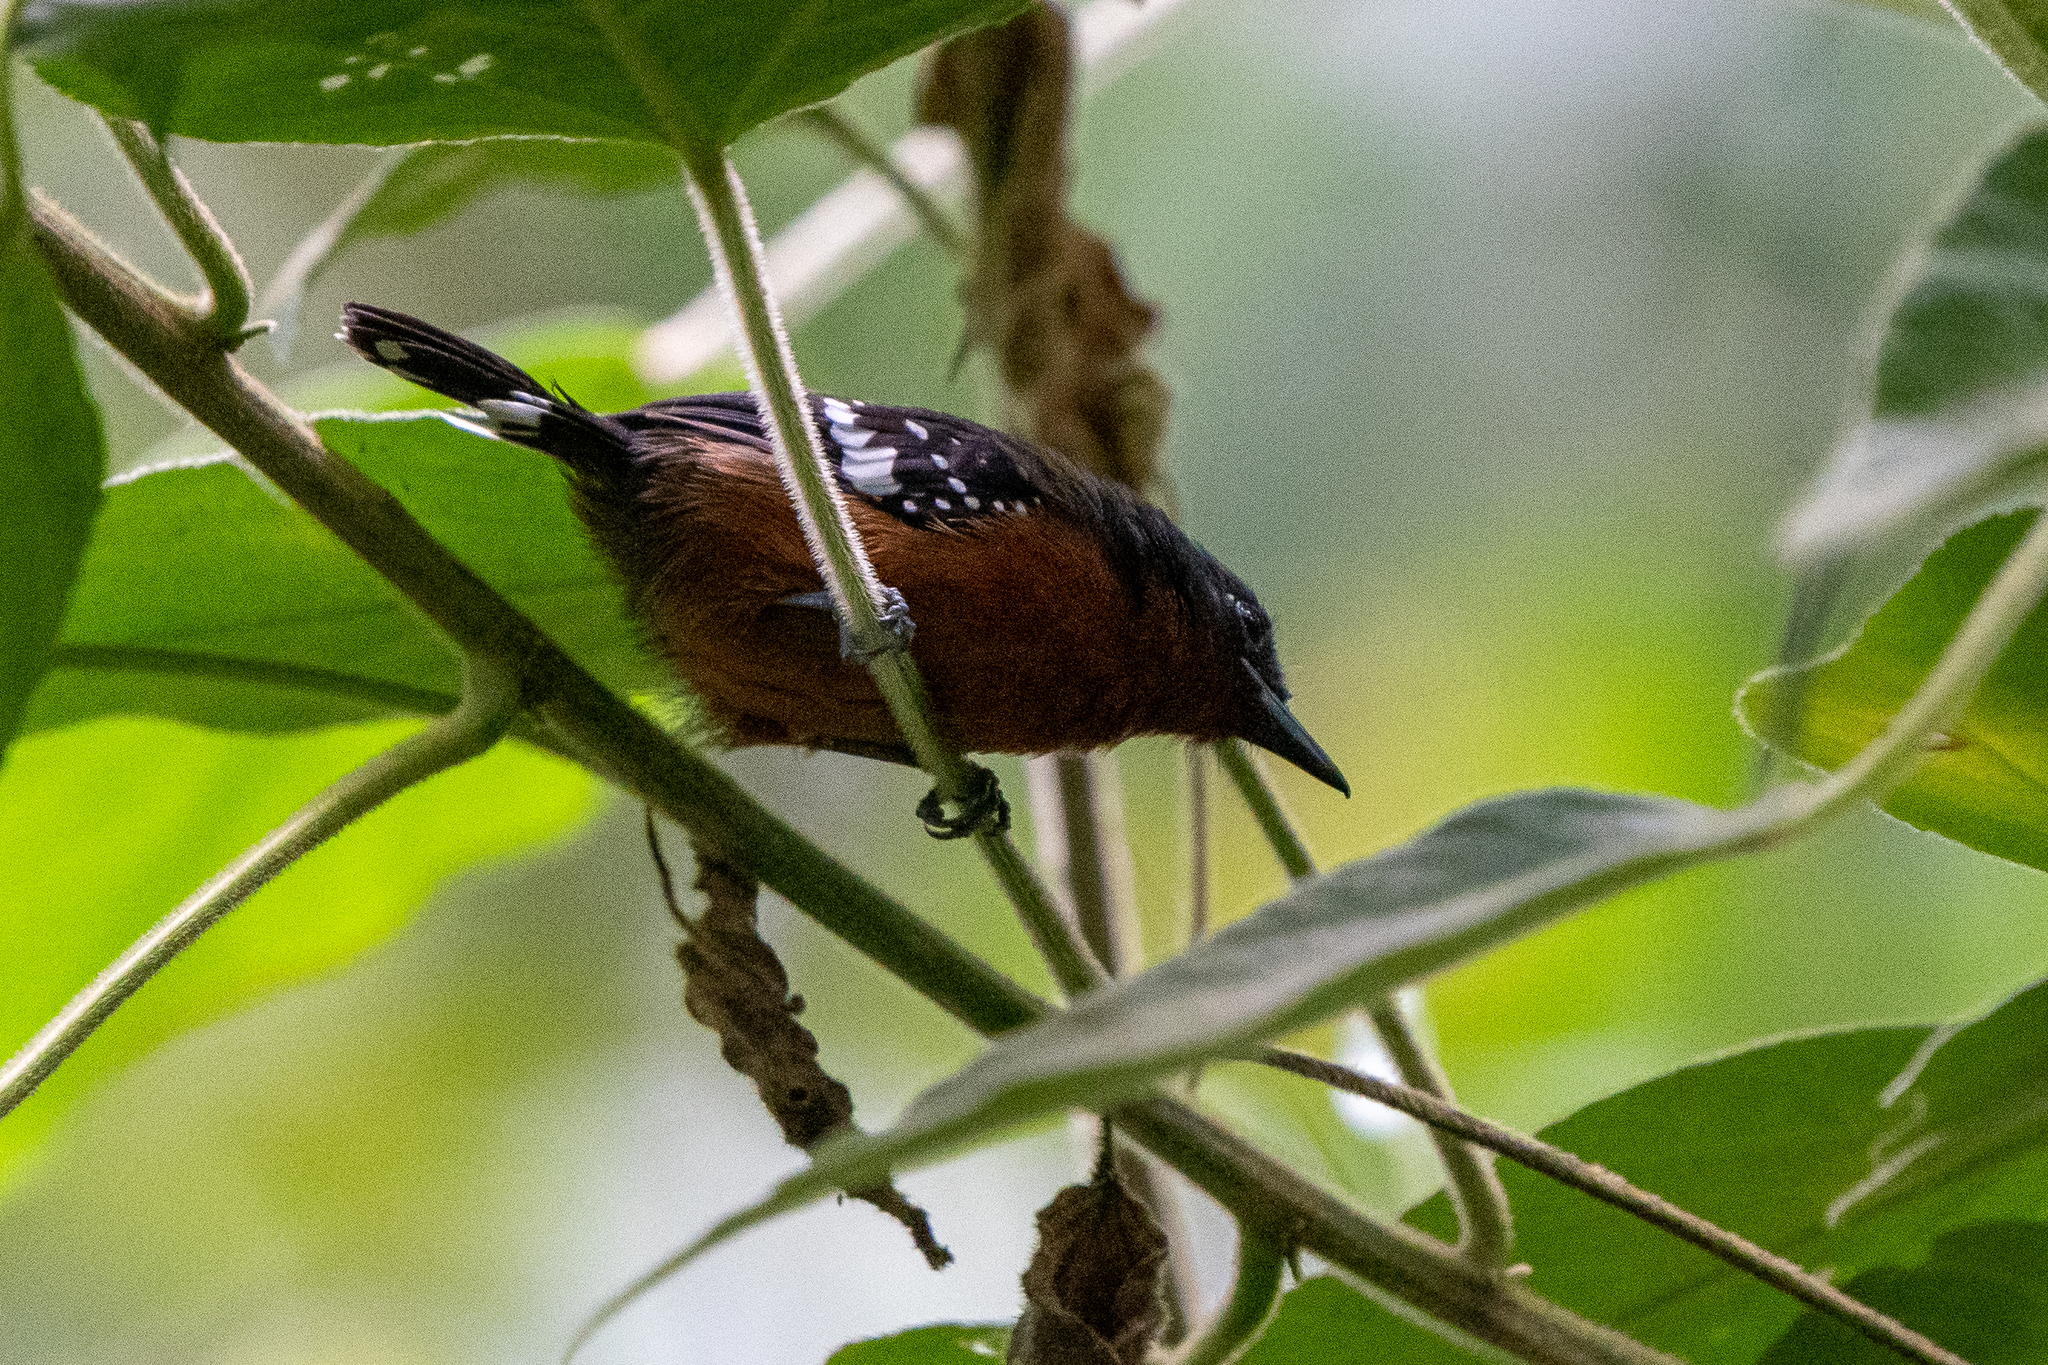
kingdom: Animalia
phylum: Chordata
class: Aves
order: Passeriformes
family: Thamnophilidae
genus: Microrhopias
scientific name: Microrhopias quixensis
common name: Dot-winged antwren
